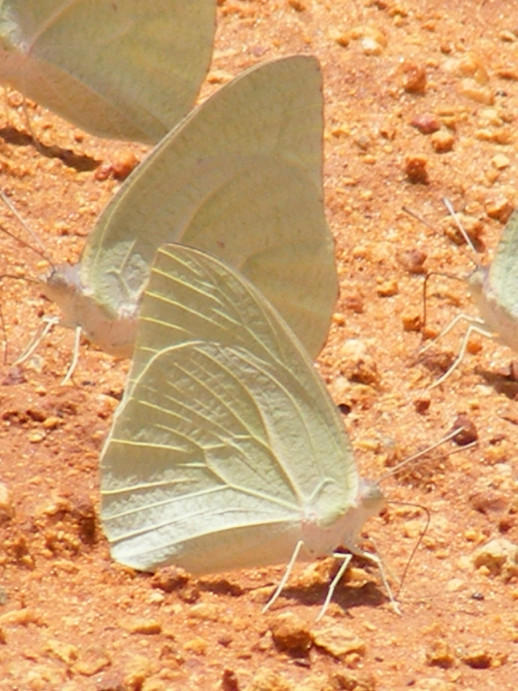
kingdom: Animalia
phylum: Arthropoda
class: Insecta
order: Lepidoptera
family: Pieridae
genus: Catopsilia
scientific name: Catopsilia florella
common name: African migrant
